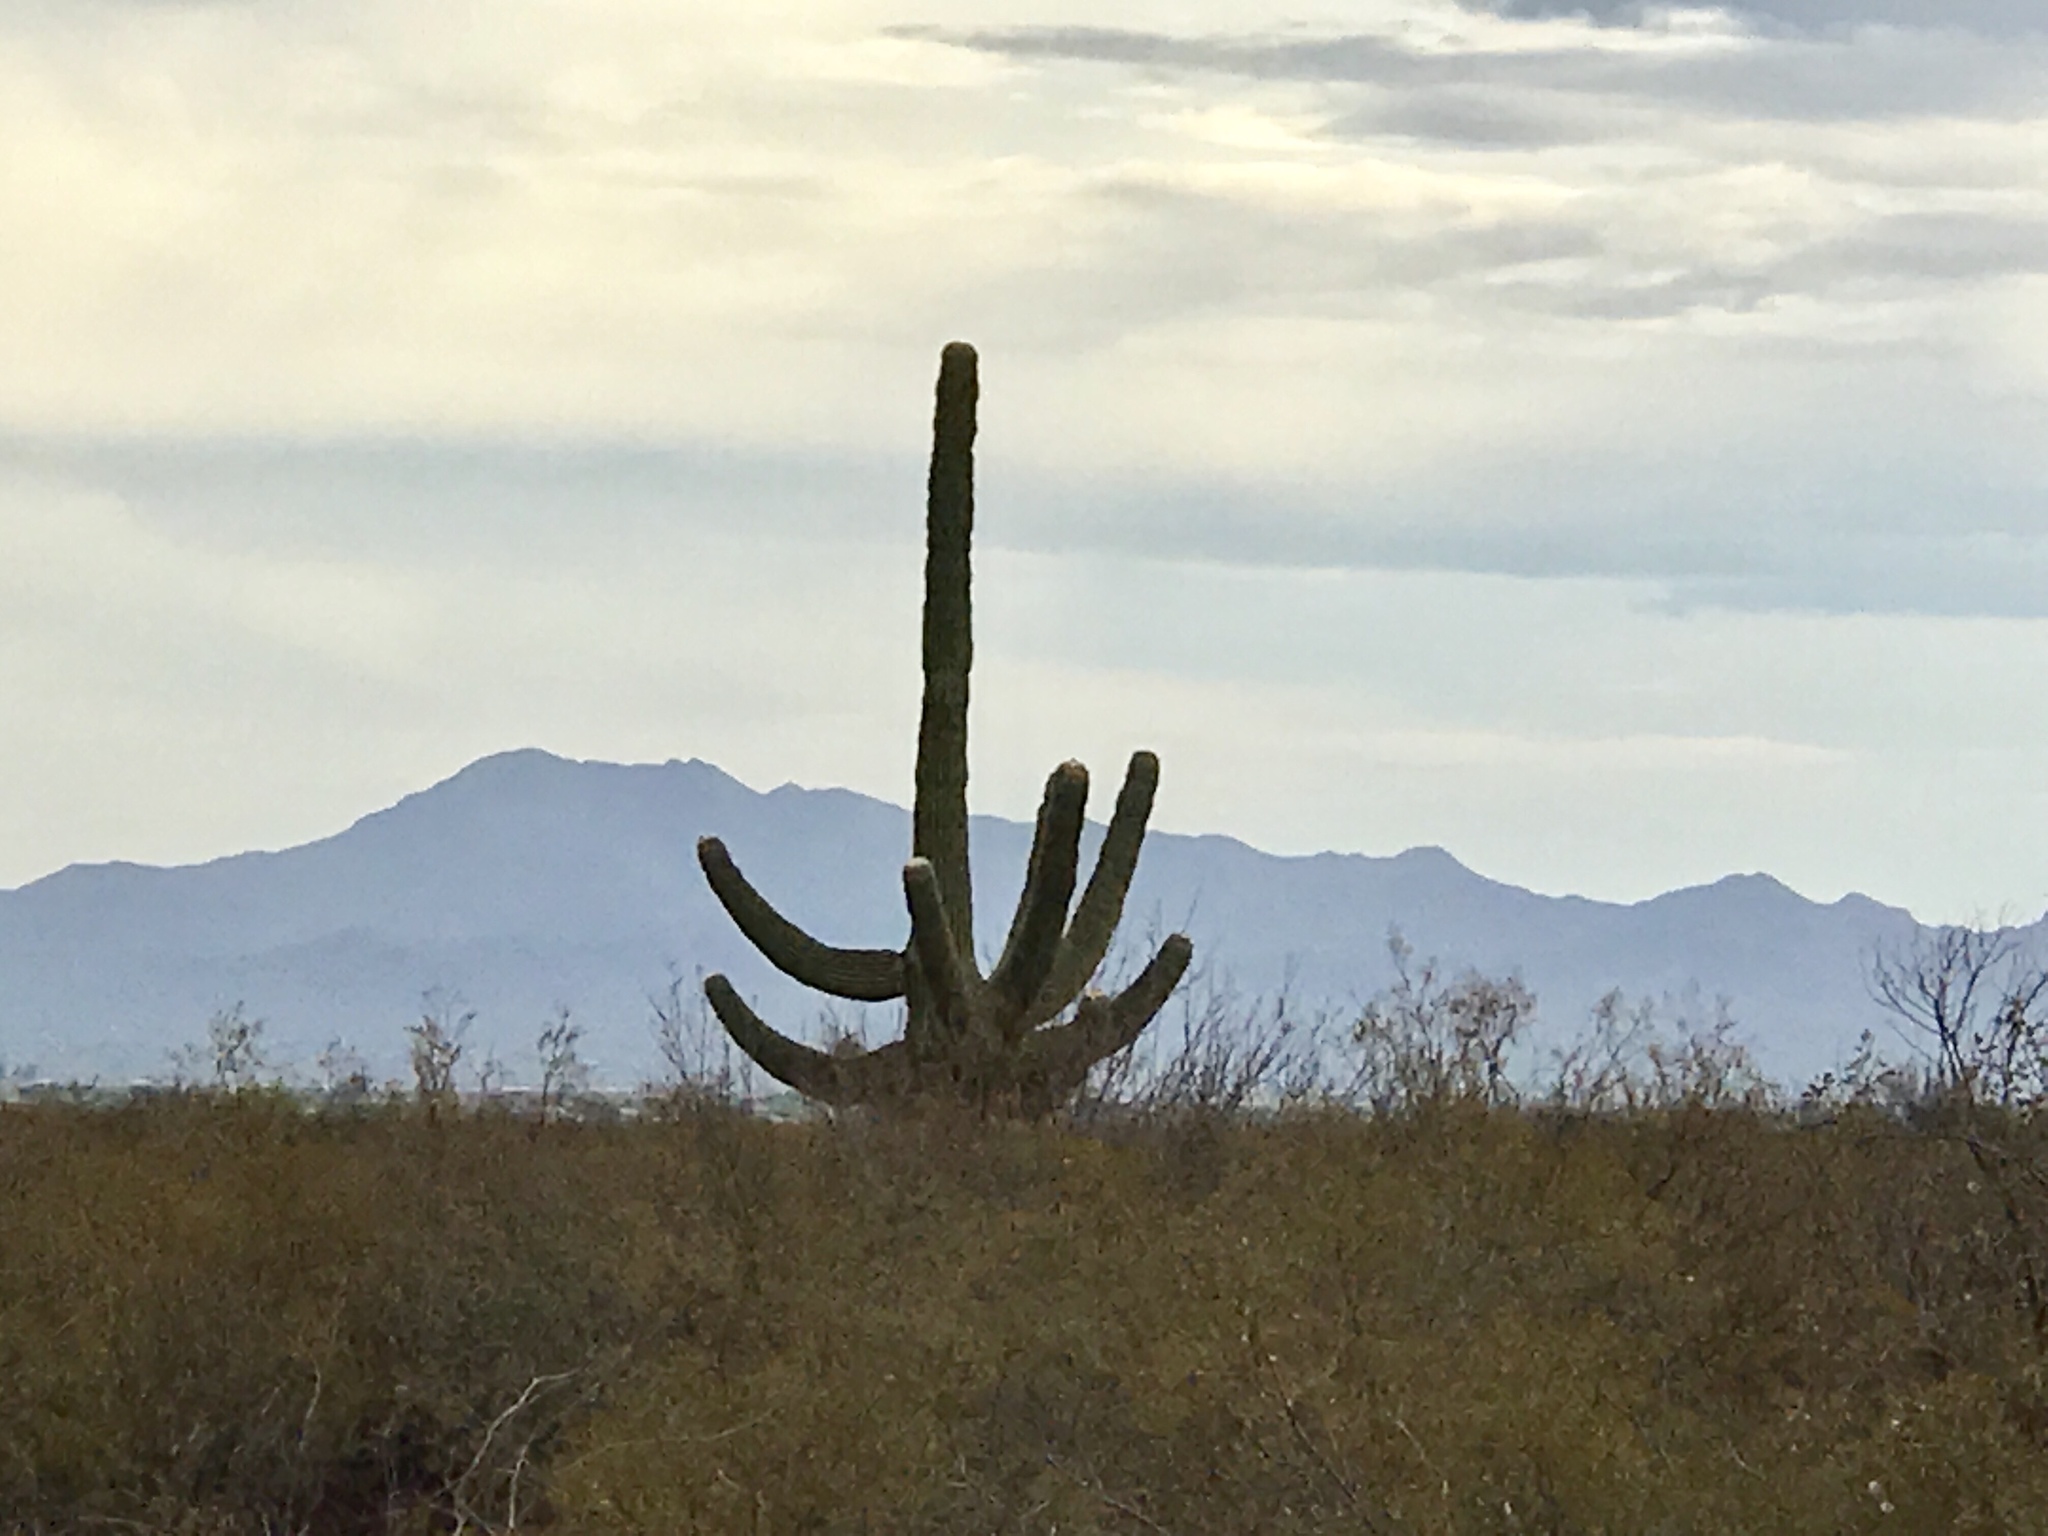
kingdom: Plantae
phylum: Tracheophyta
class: Magnoliopsida
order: Caryophyllales
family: Cactaceae
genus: Carnegiea
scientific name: Carnegiea gigantea
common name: Saguaro
